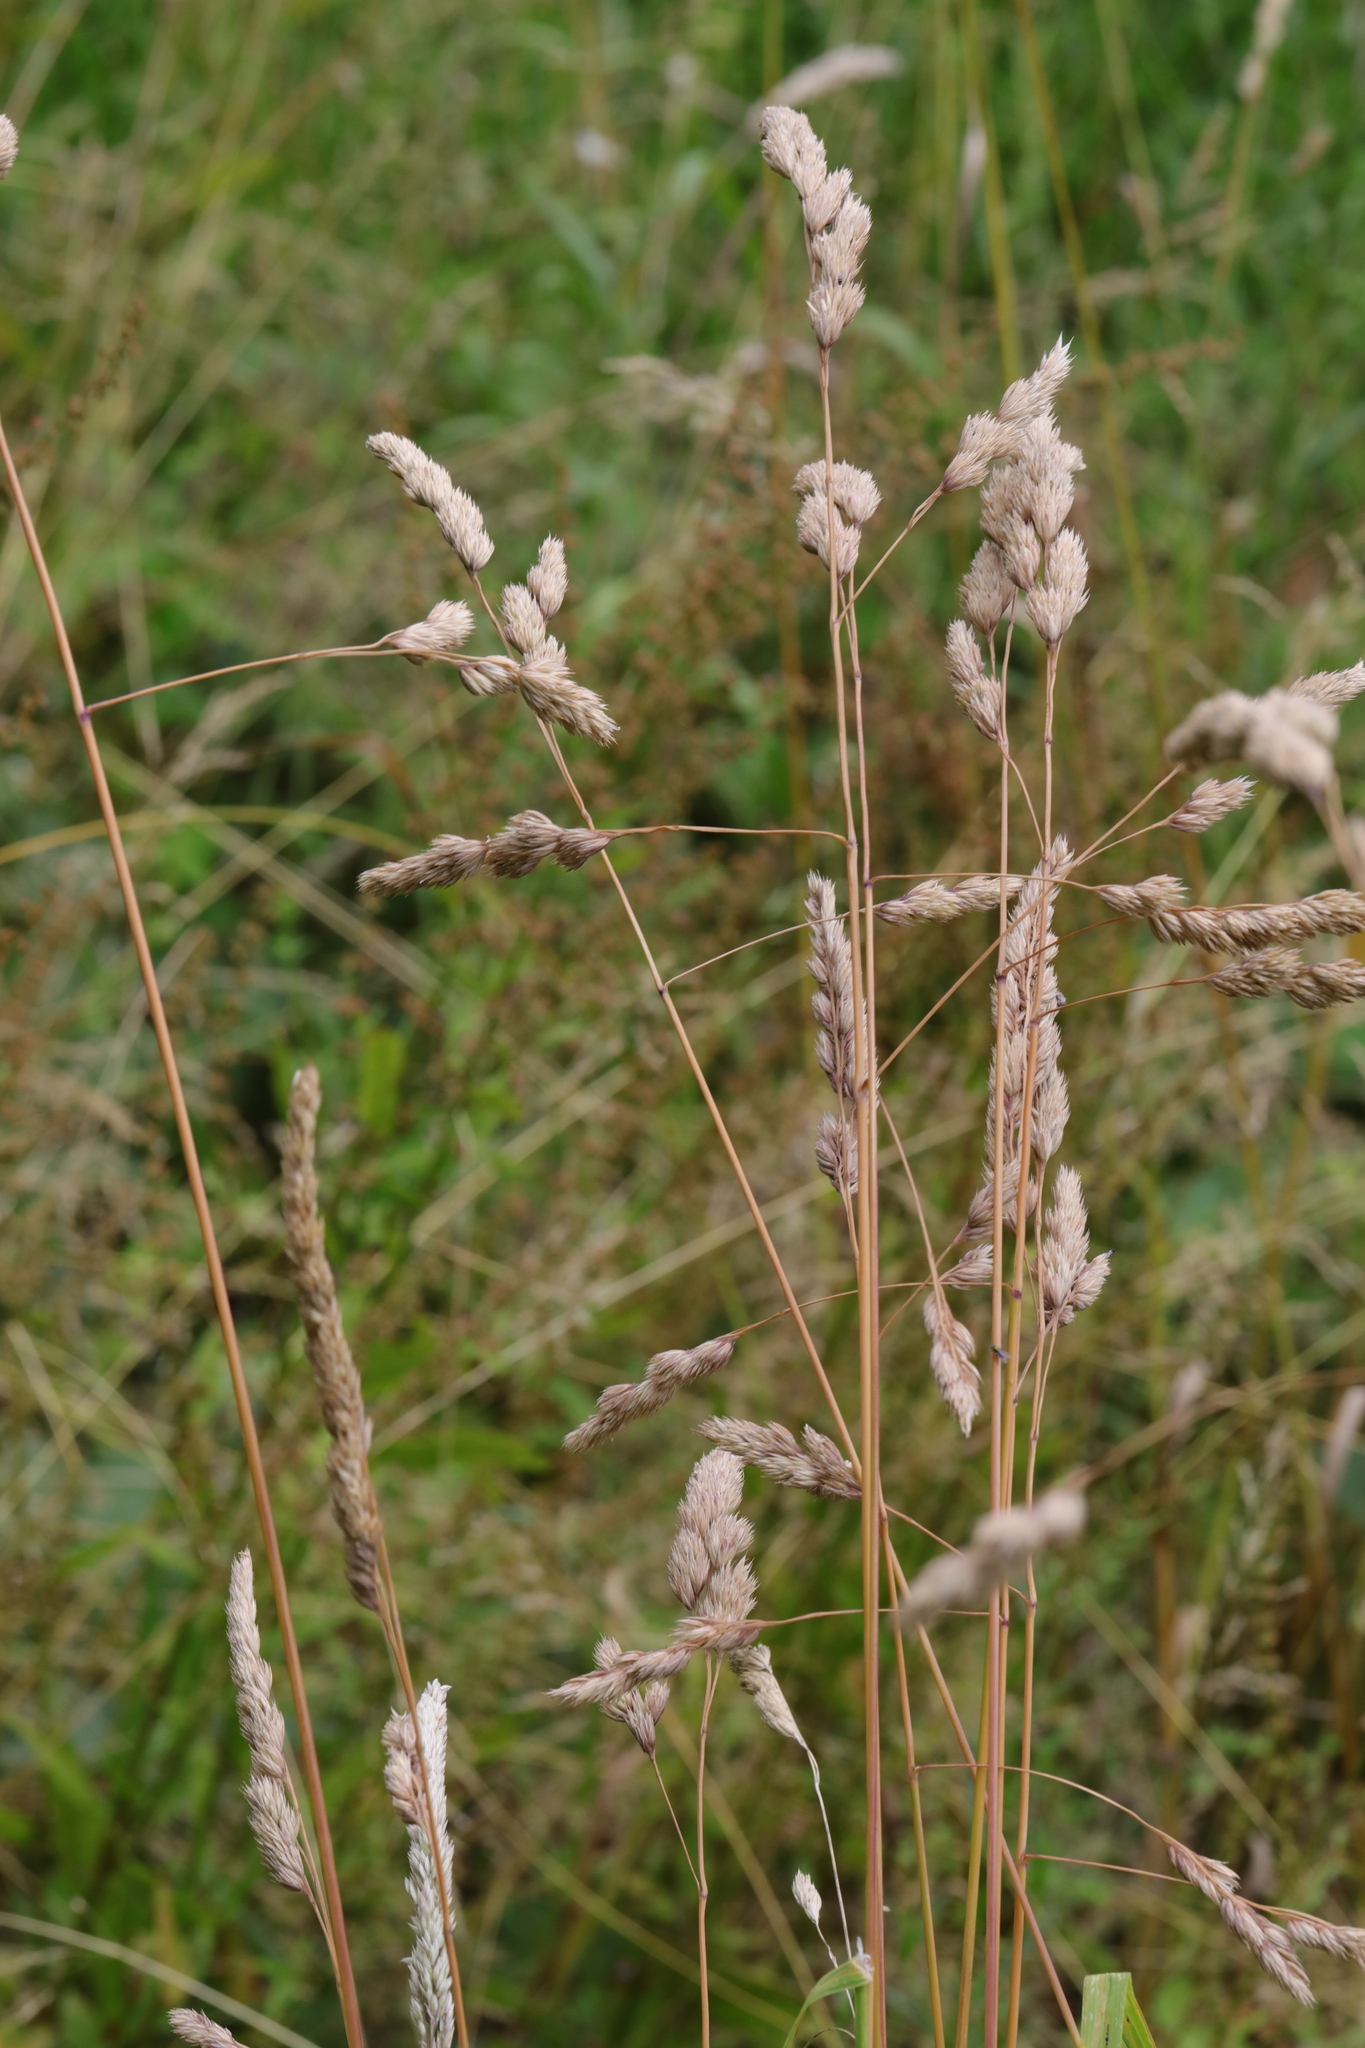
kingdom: Plantae
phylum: Tracheophyta
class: Liliopsida
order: Poales
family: Poaceae
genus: Dactylis
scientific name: Dactylis glomerata
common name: Orchardgrass
